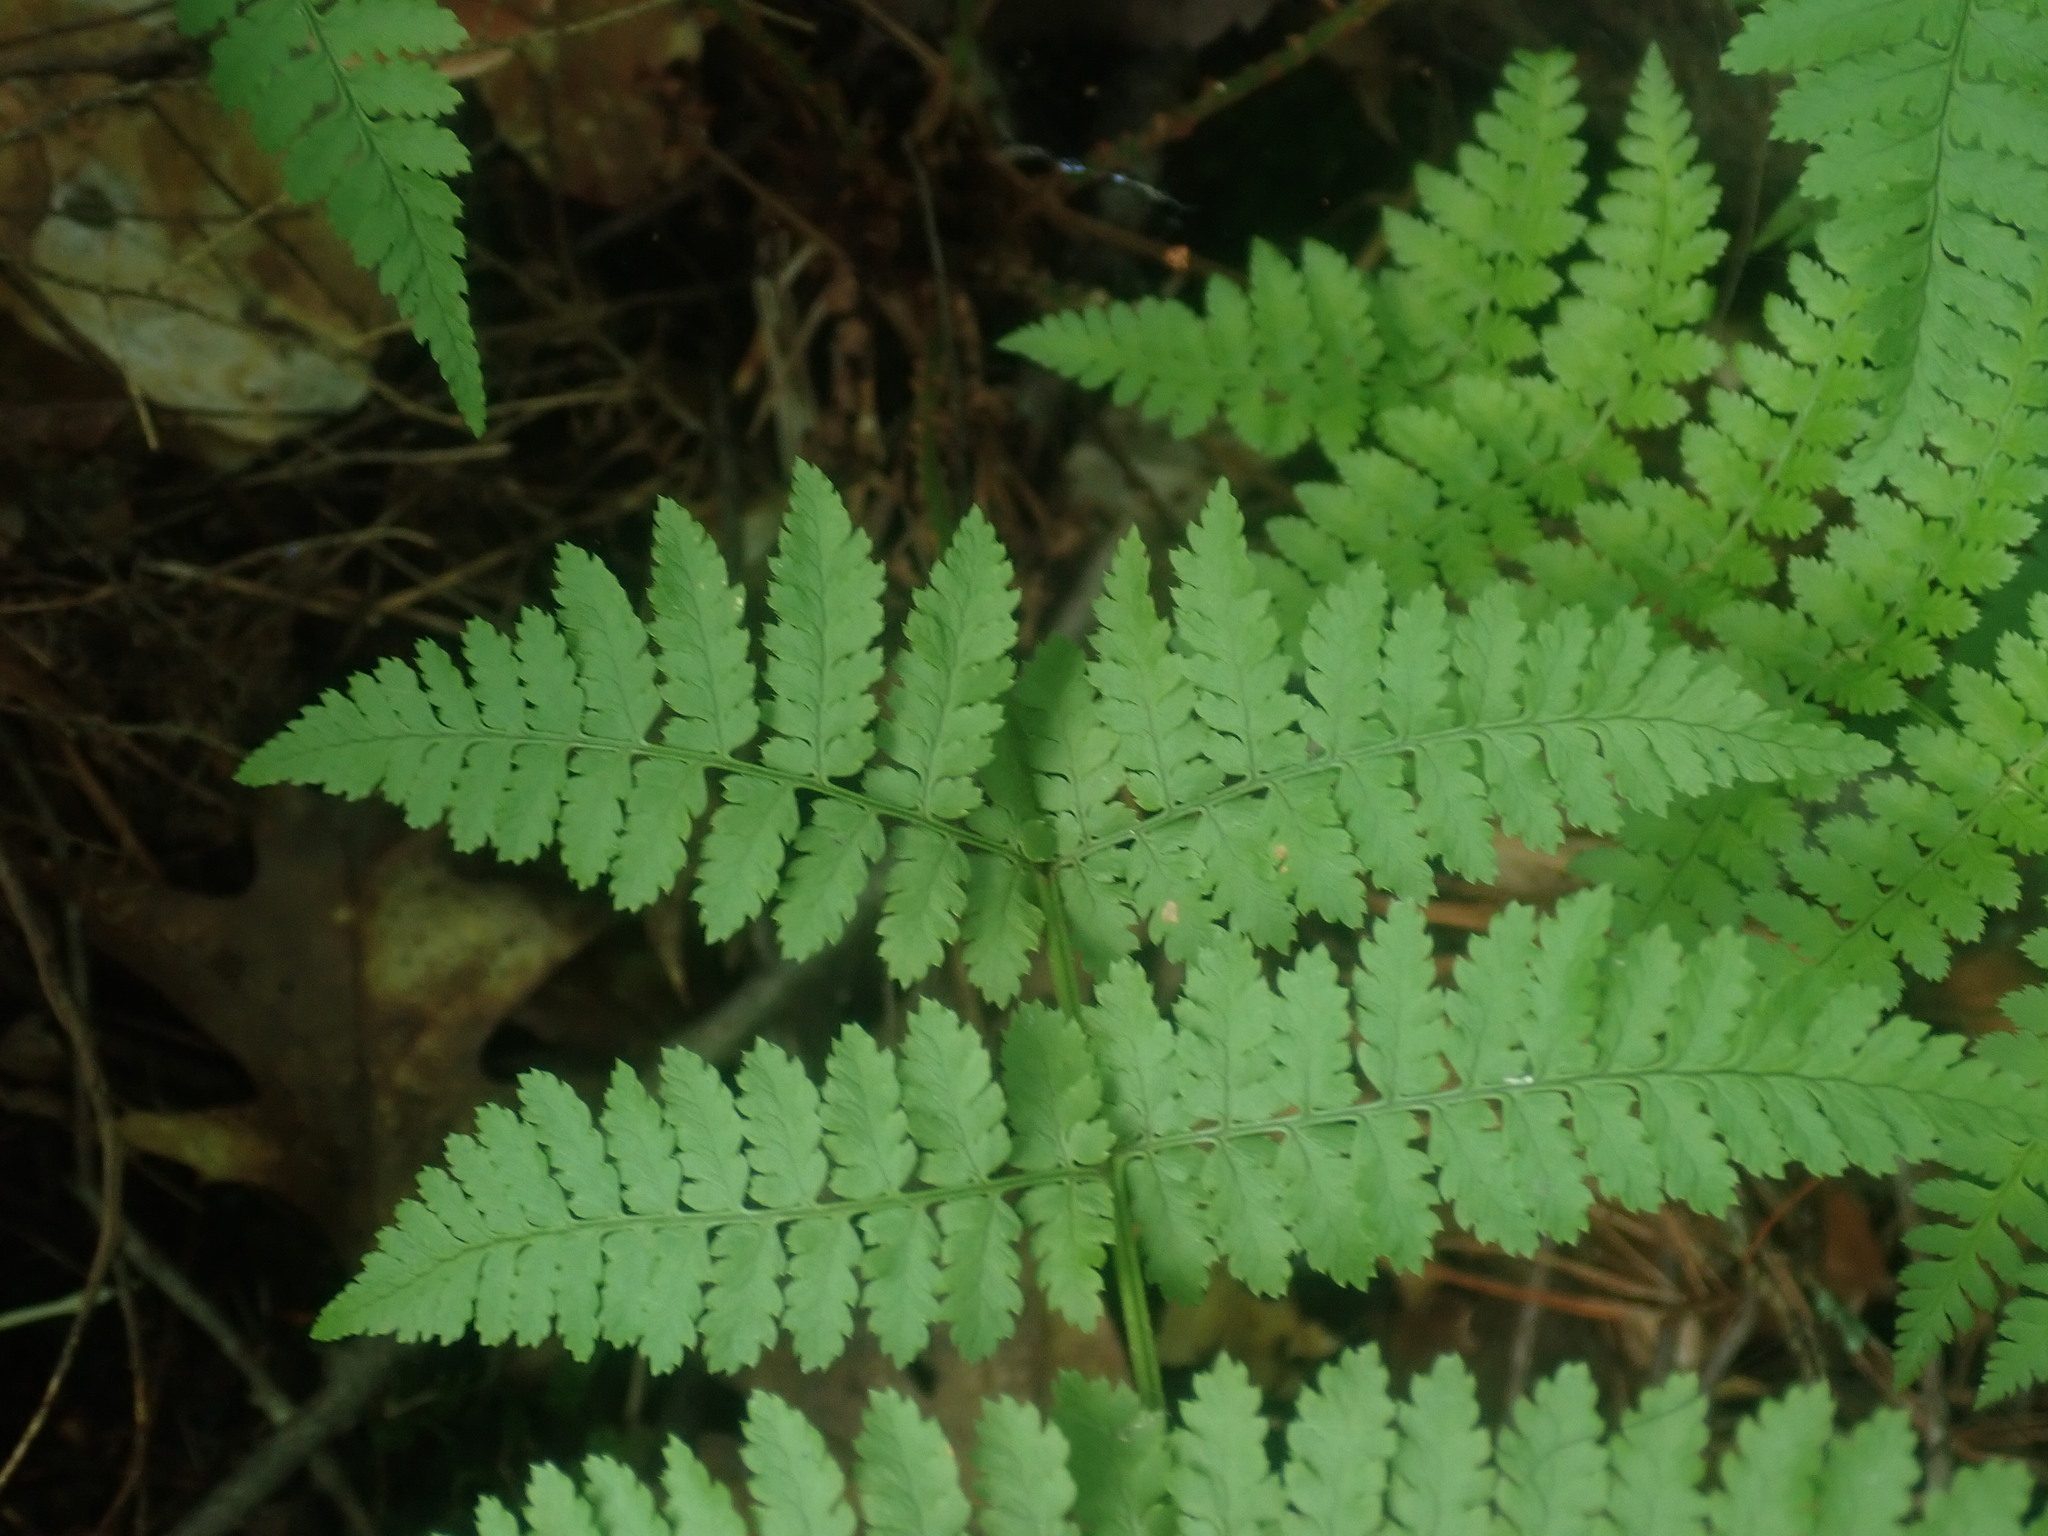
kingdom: Plantae
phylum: Tracheophyta
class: Polypodiopsida
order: Polypodiales
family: Dryopteridaceae
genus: Dryopteris
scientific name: Dryopteris intermedia
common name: Evergreen wood fern
